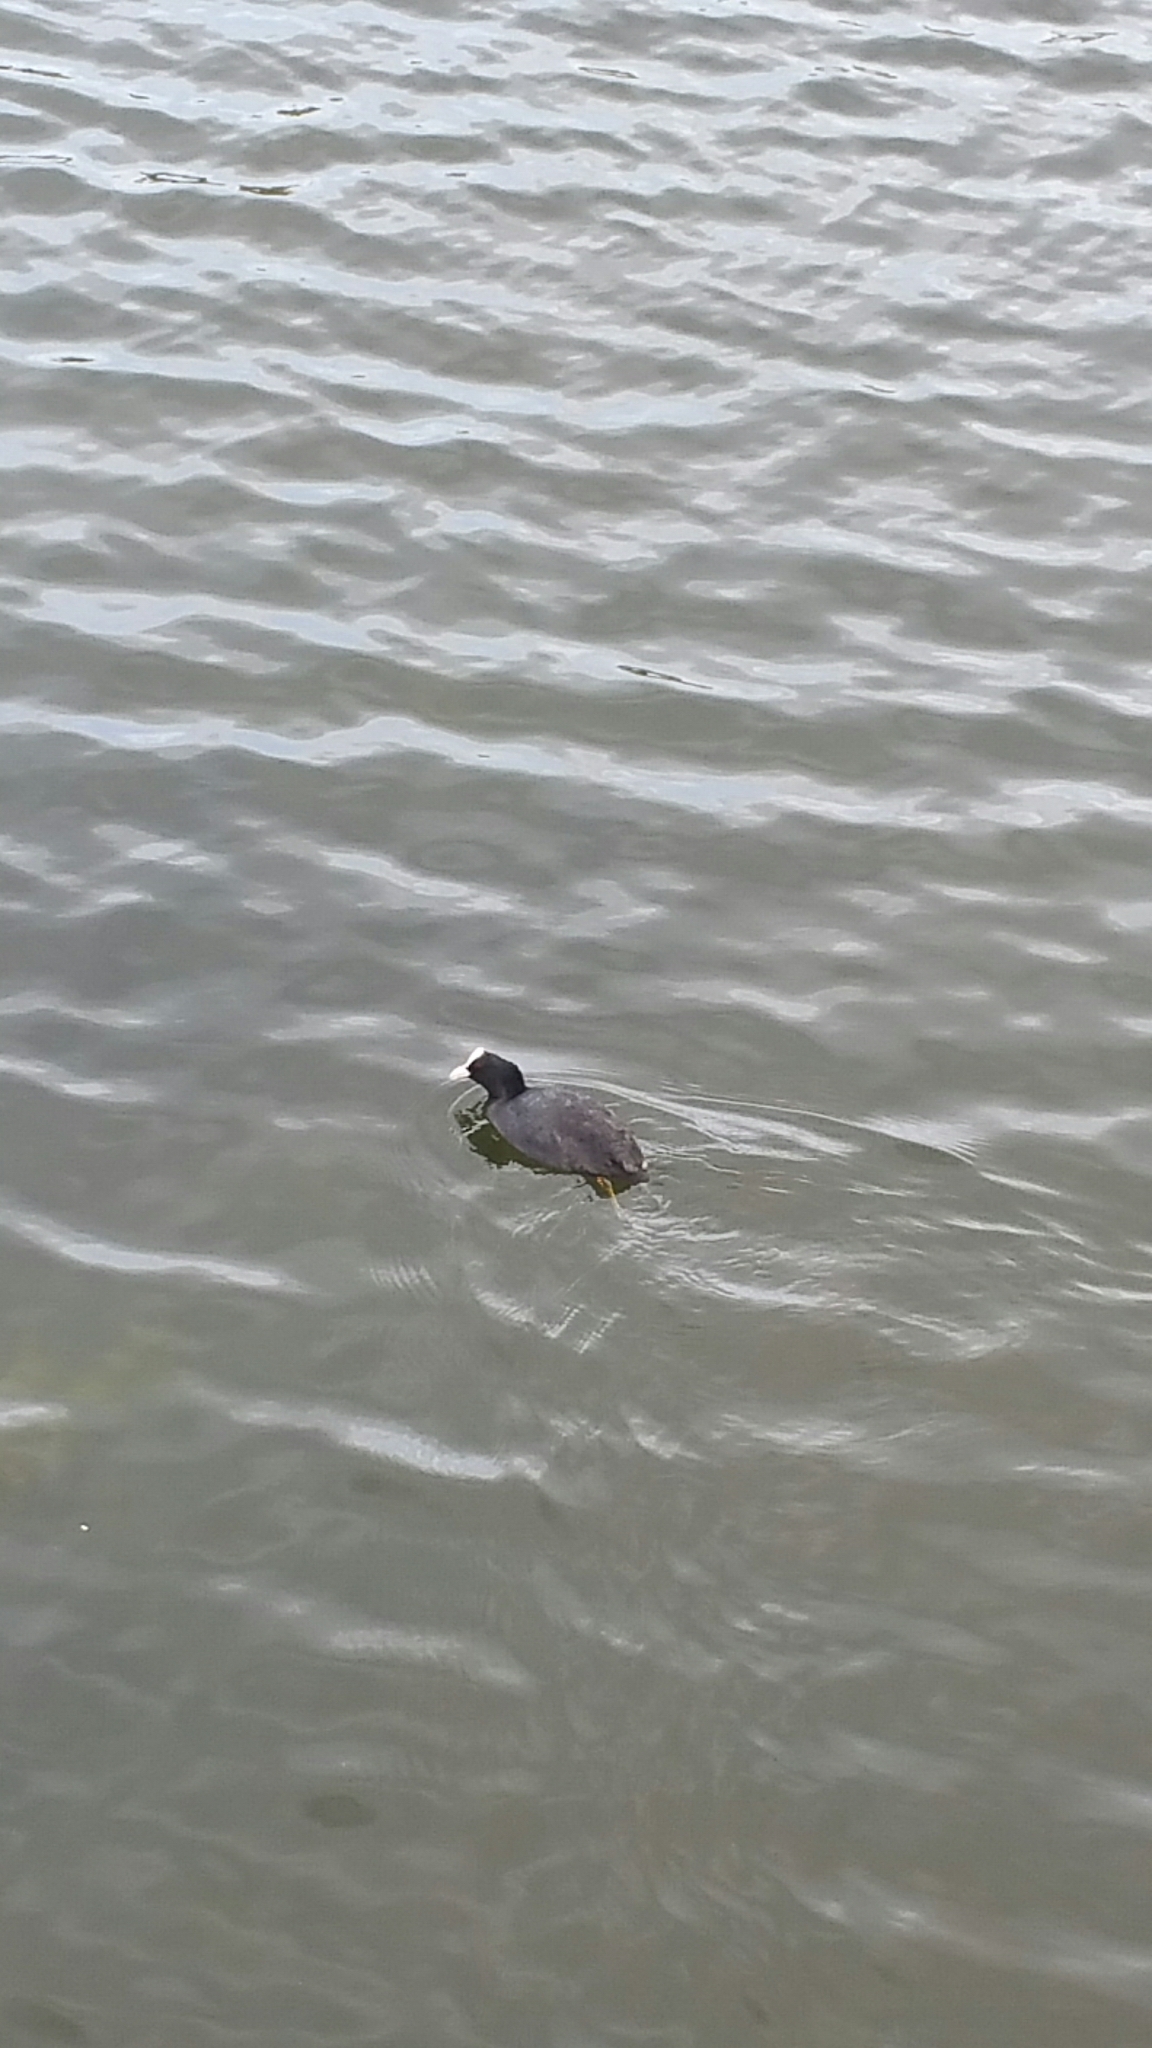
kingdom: Animalia
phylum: Chordata
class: Aves
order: Gruiformes
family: Rallidae
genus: Fulica
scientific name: Fulica atra
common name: Eurasian coot
